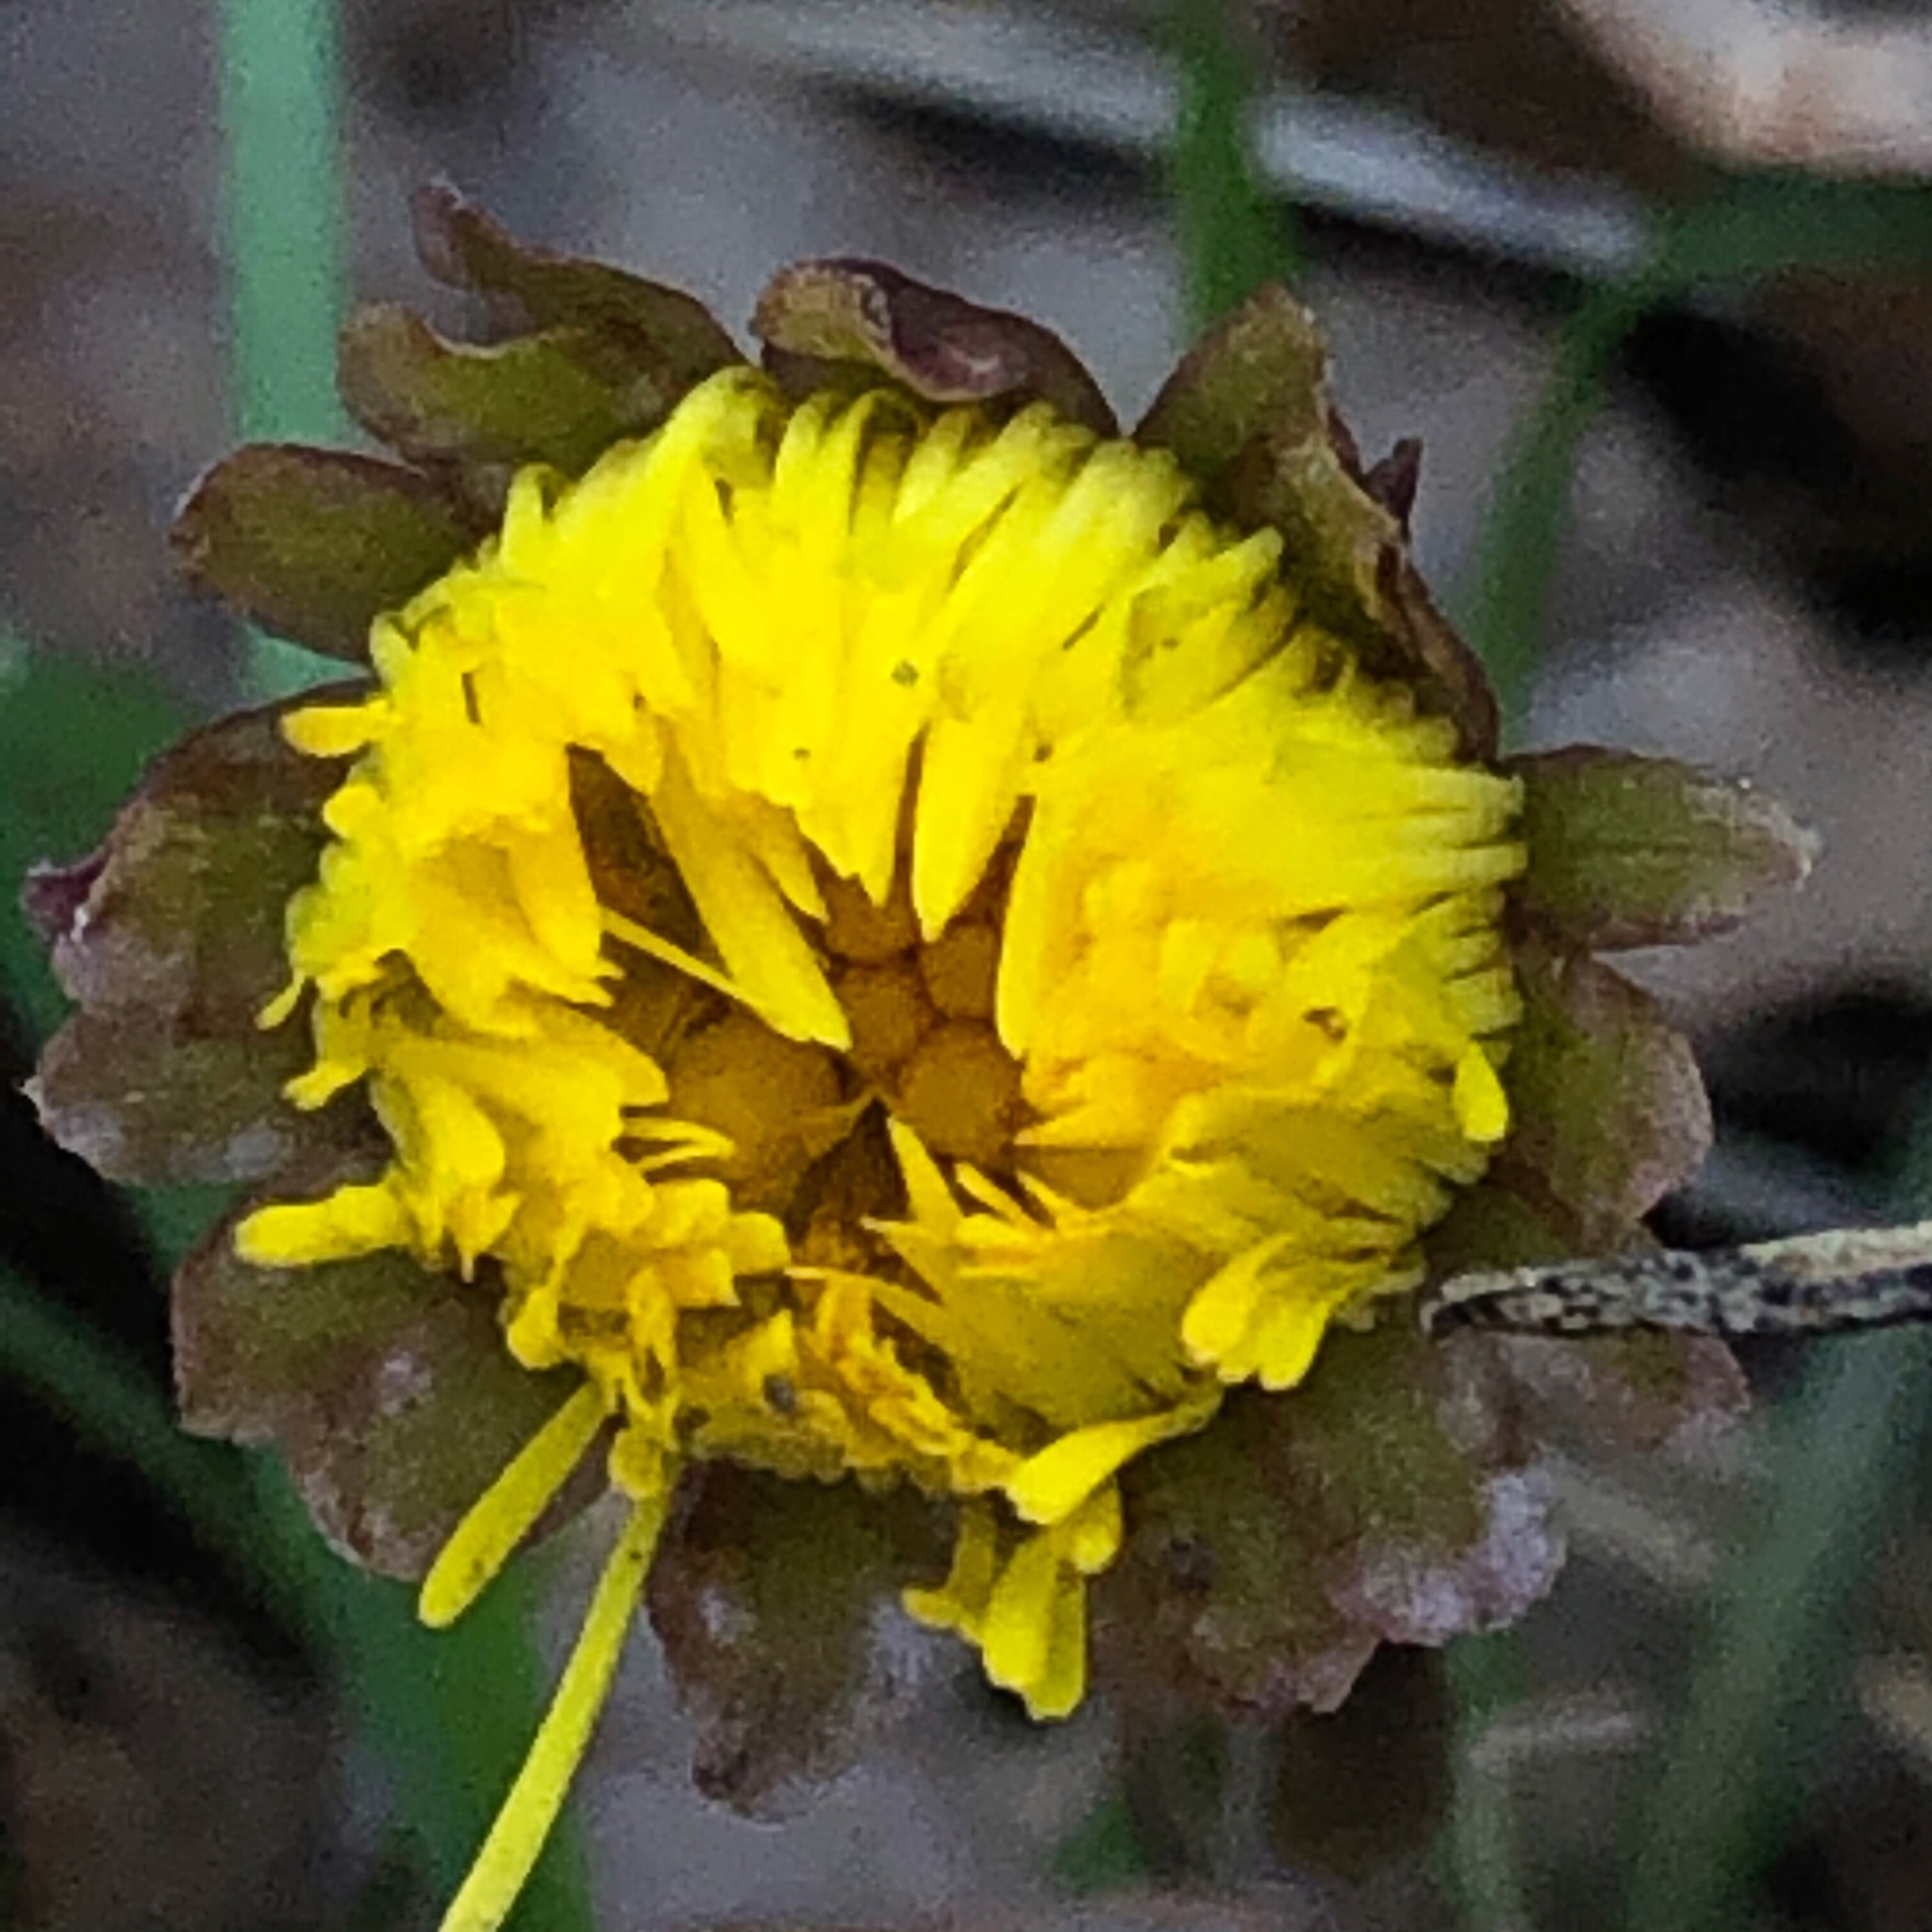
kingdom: Plantae
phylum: Tracheophyta
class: Magnoliopsida
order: Asterales
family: Asteraceae
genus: Tussilago
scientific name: Tussilago farfara
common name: Coltsfoot
